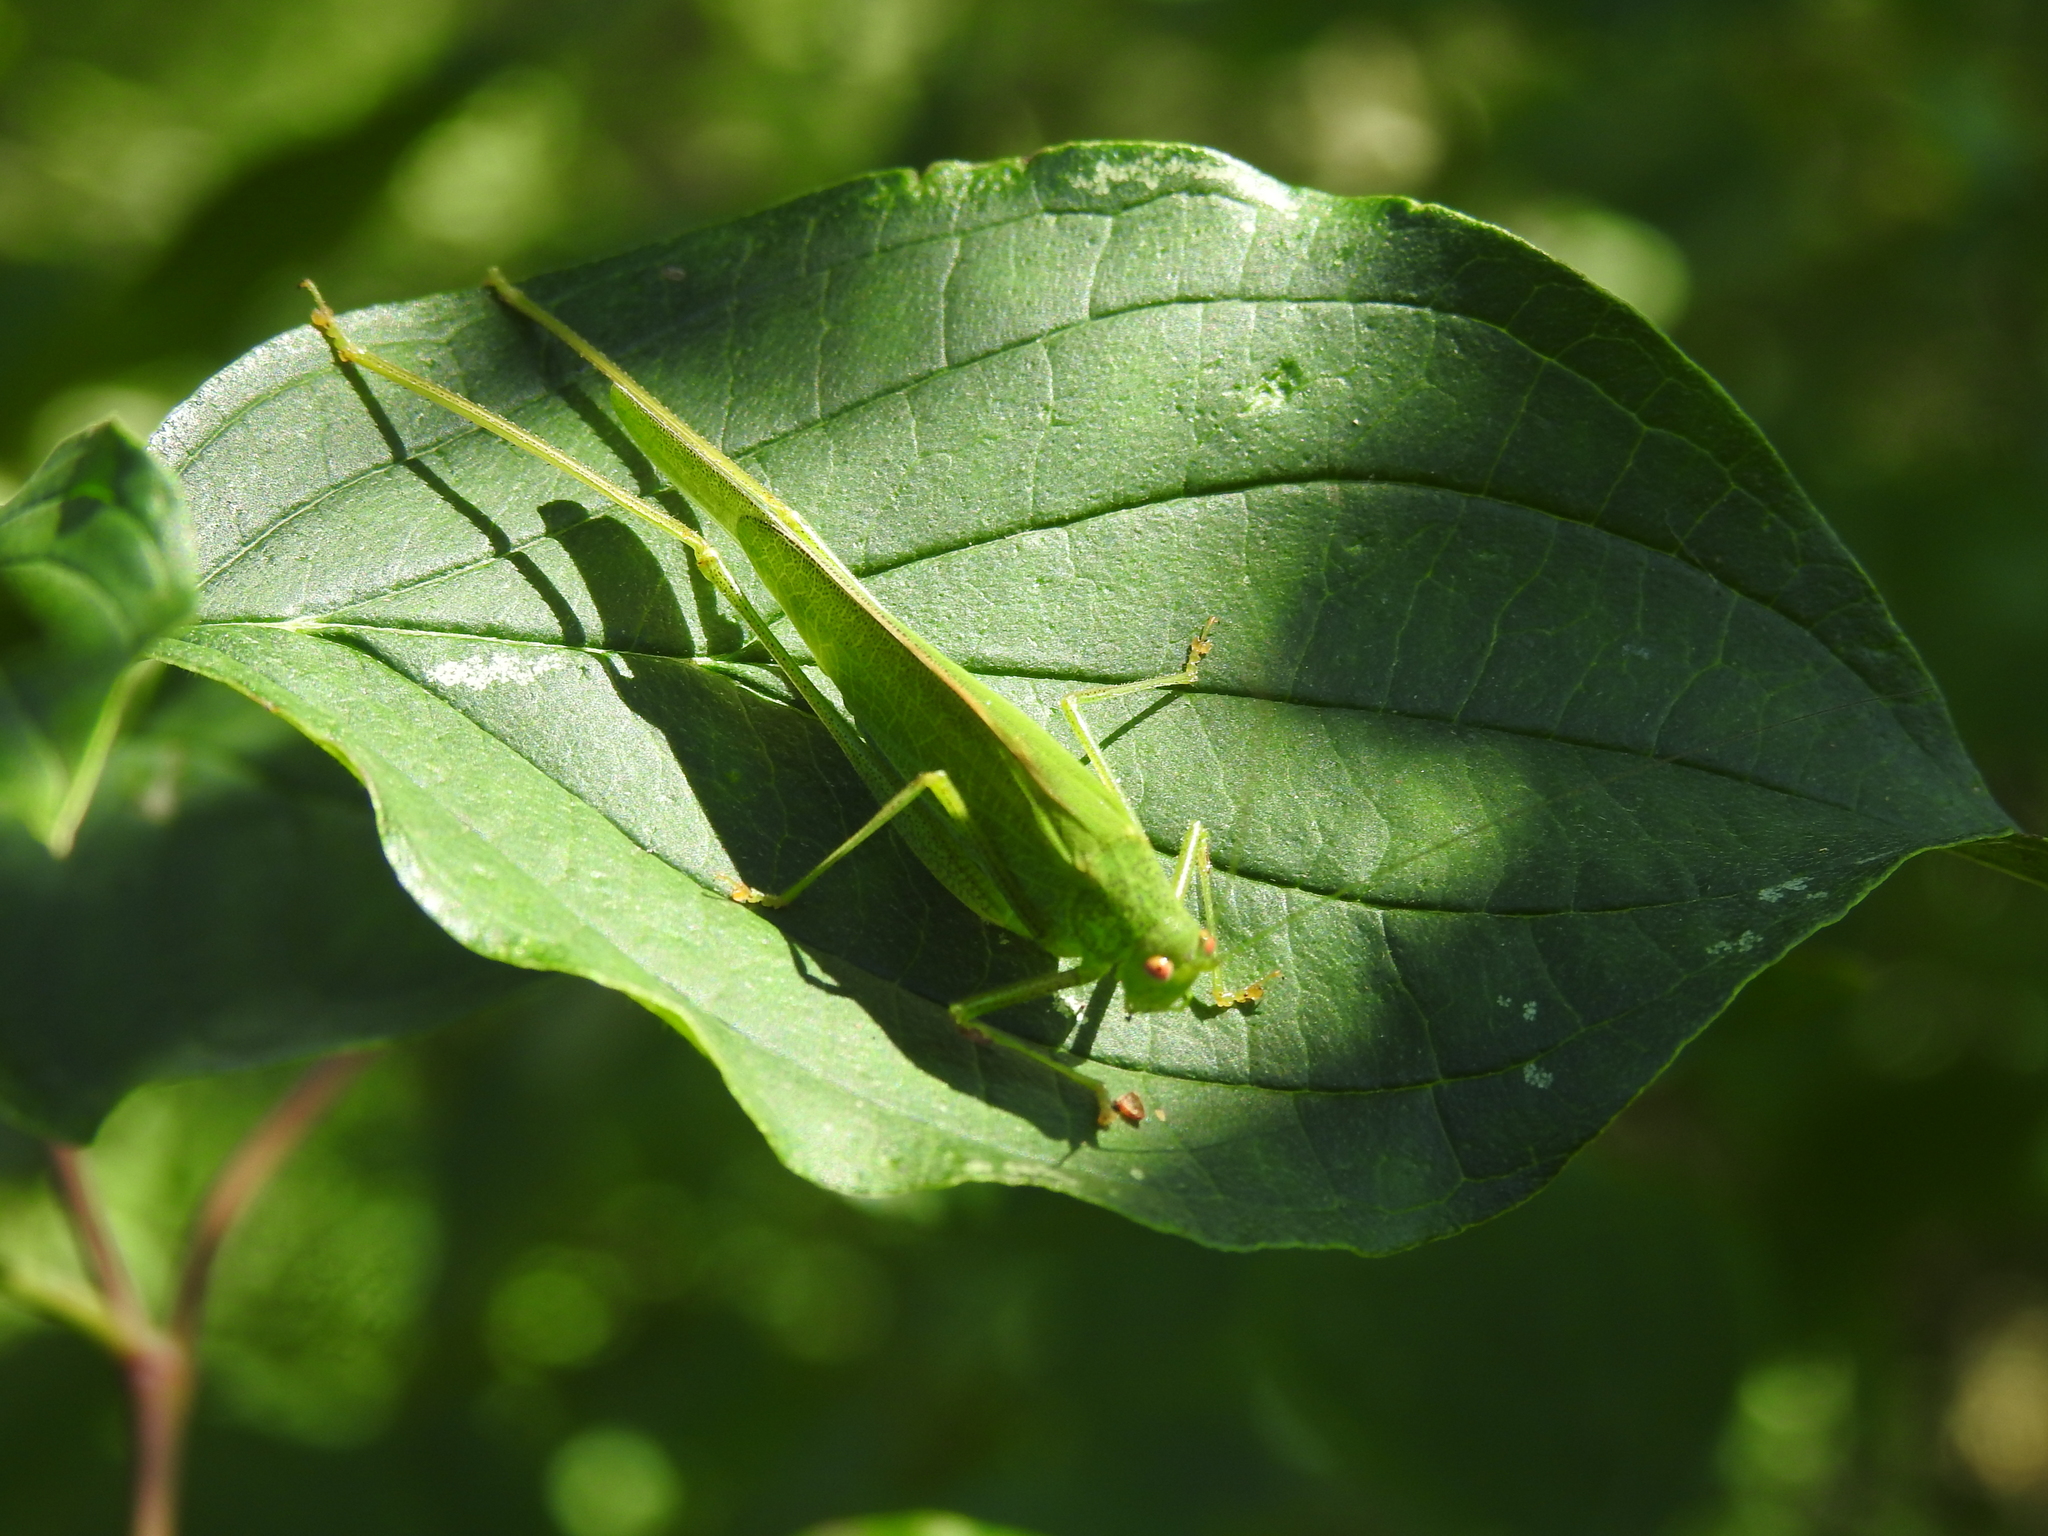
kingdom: Animalia
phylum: Arthropoda
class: Insecta
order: Orthoptera
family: Tettigoniidae
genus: Phaneroptera
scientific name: Phaneroptera nana
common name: Southern sickle bush-cricket
